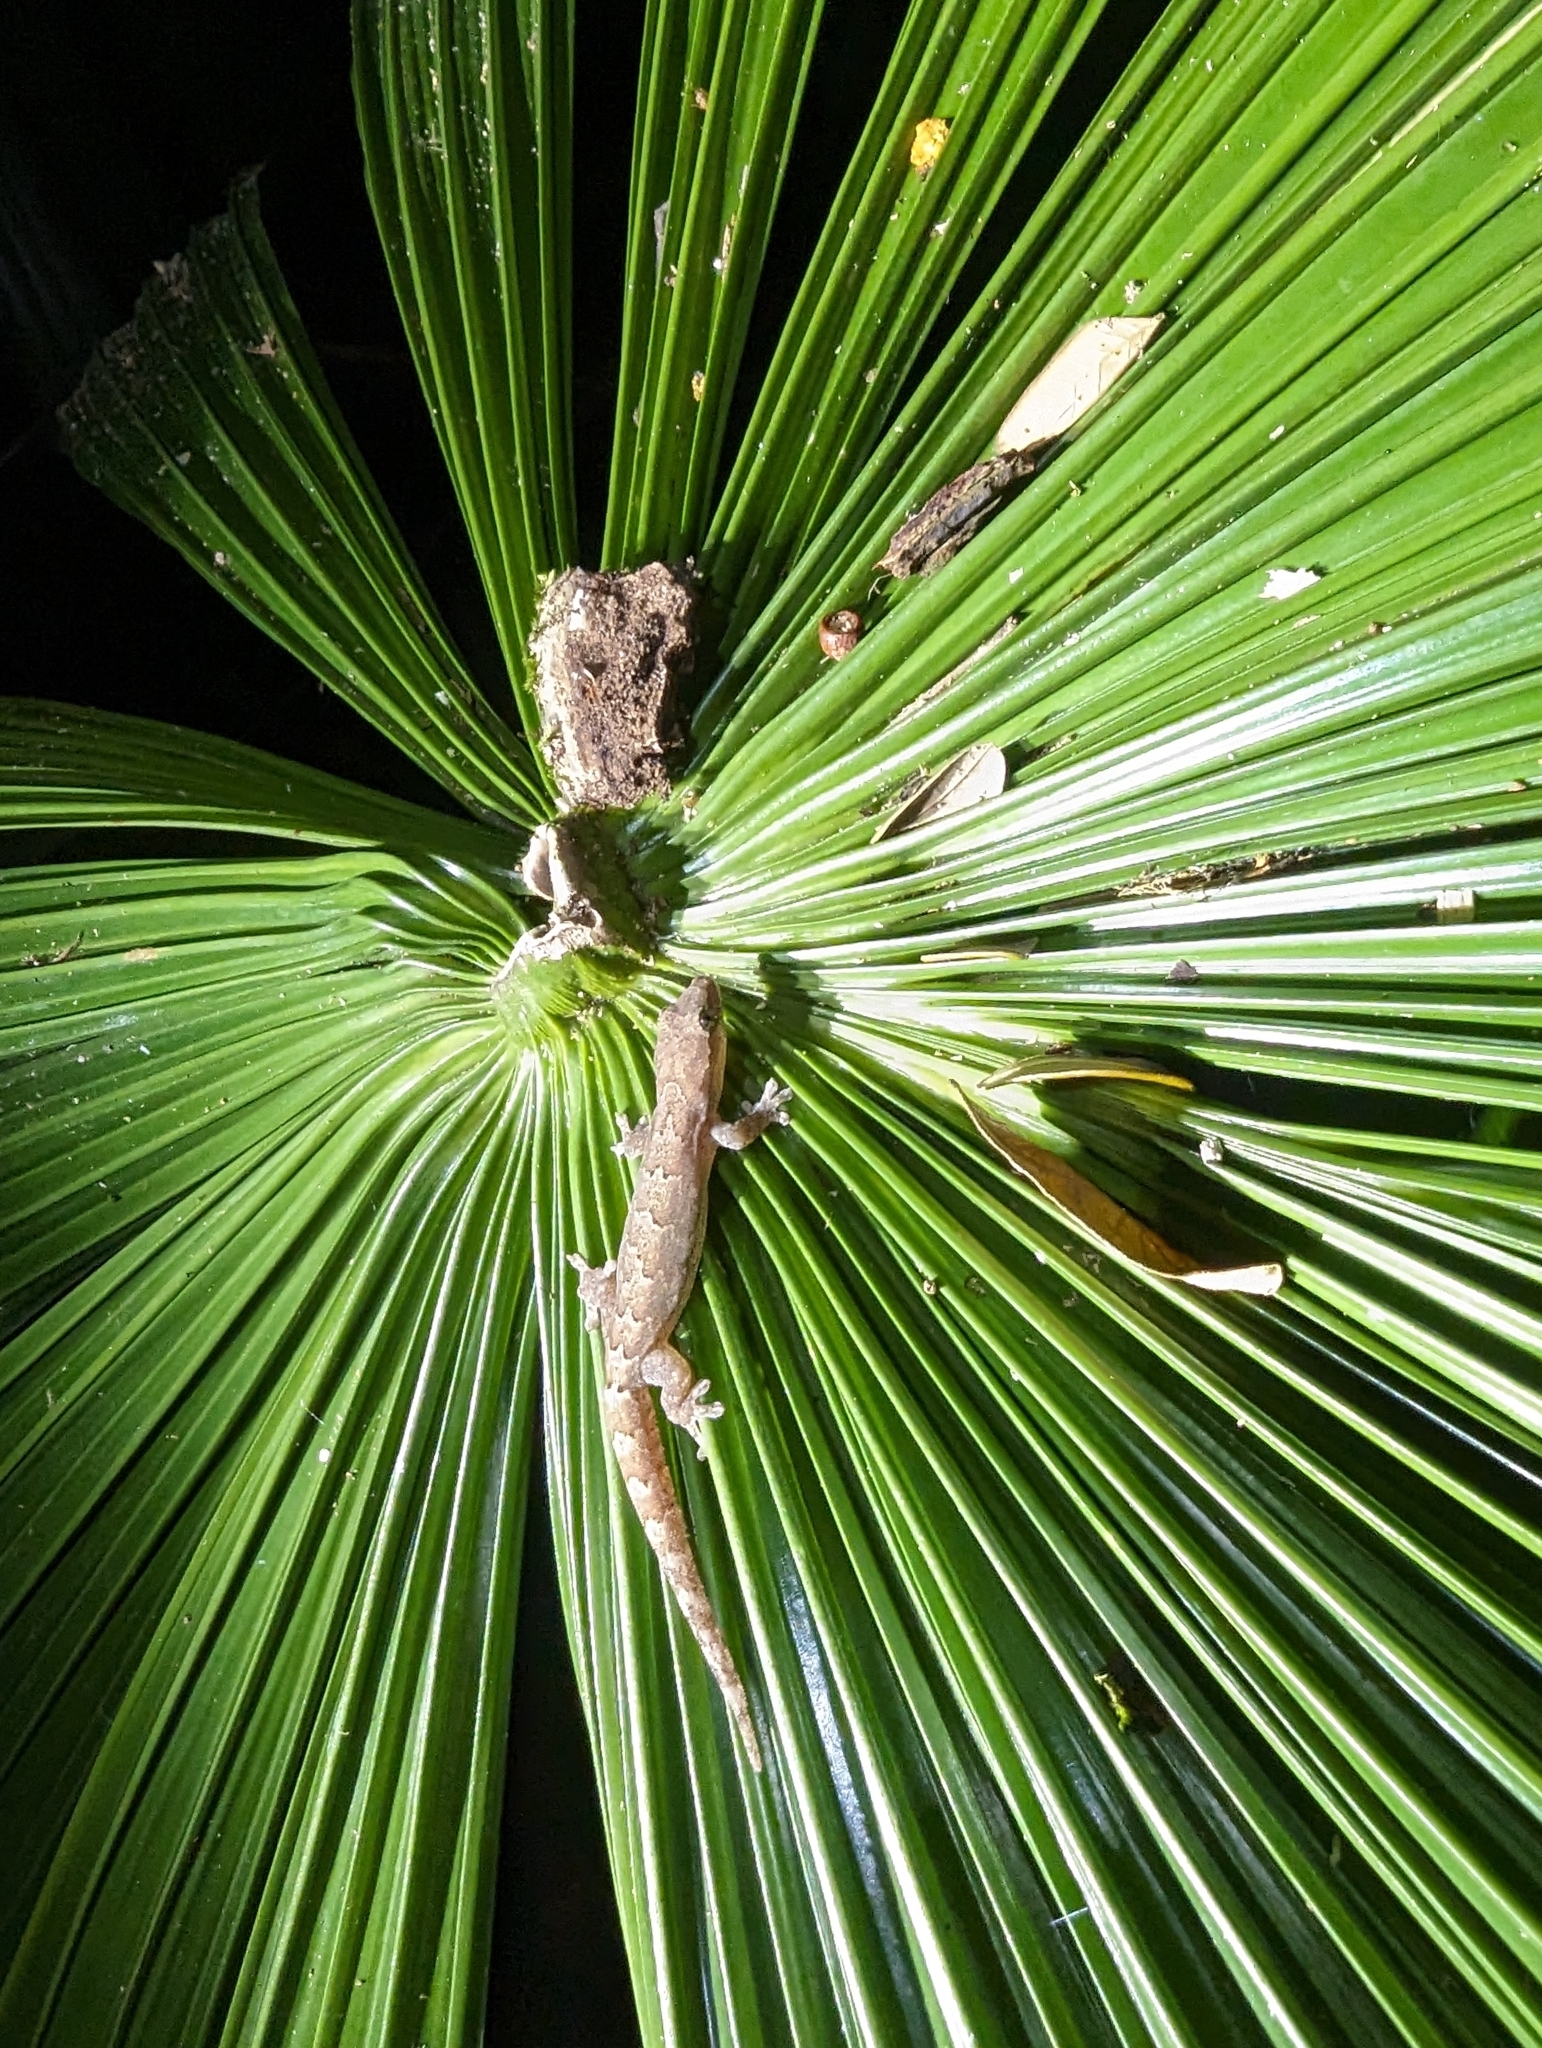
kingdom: Animalia
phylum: Chordata
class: Squamata
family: Gekkonidae
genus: Lepidodactylus
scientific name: Lepidodactylus lugubris
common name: Mourning gecko
